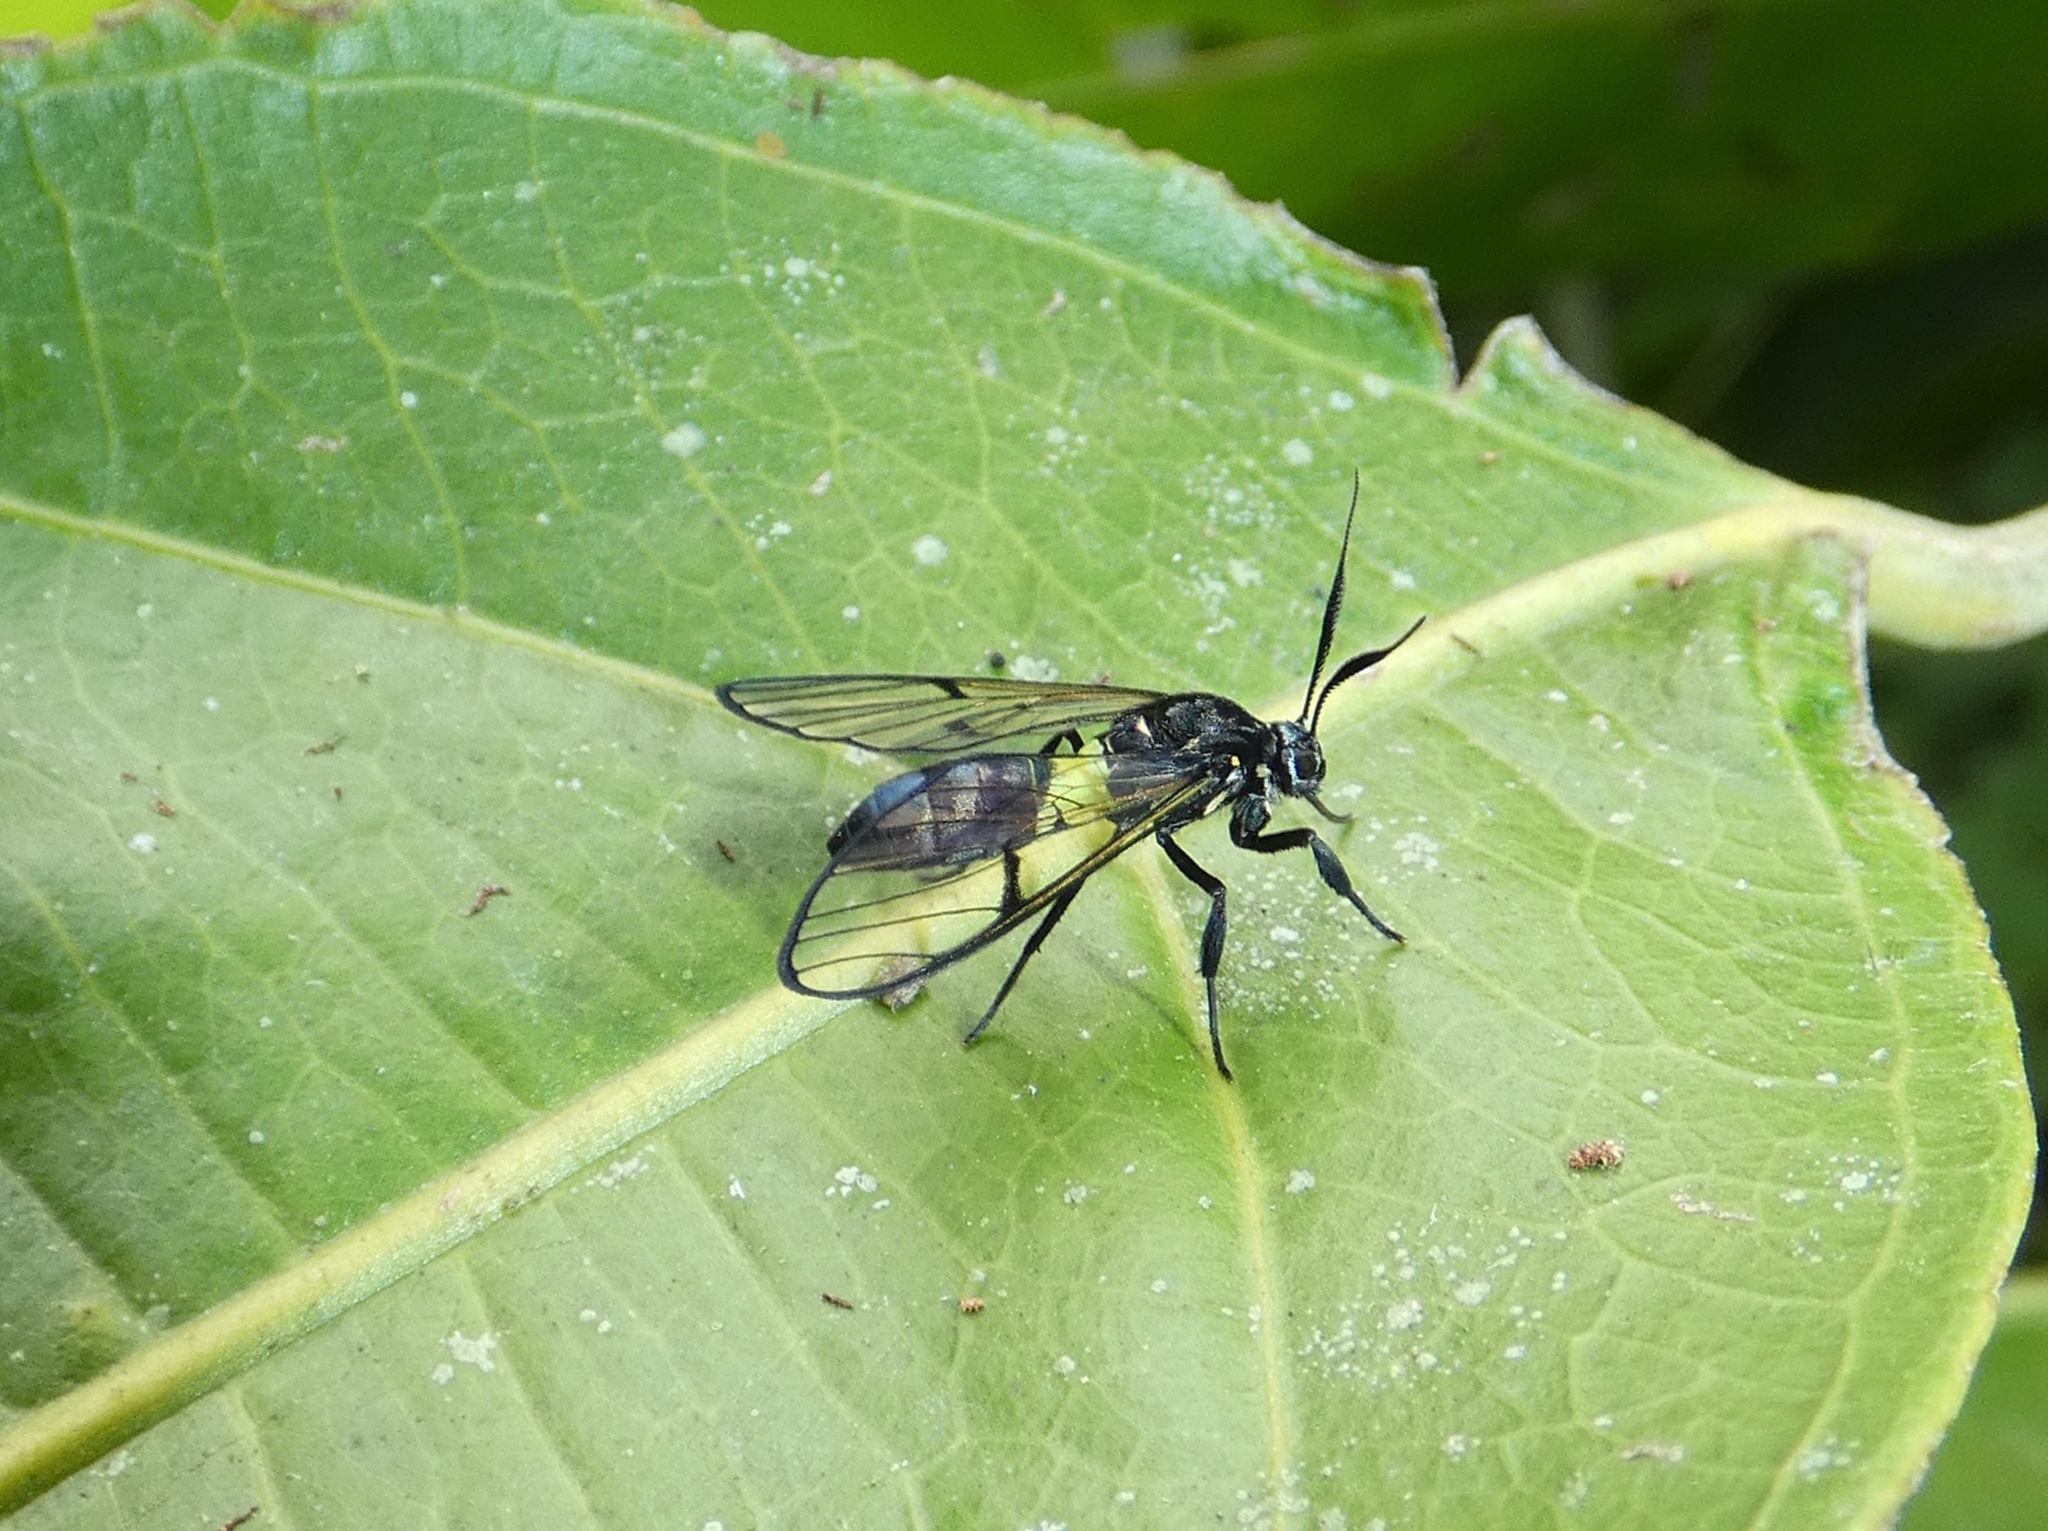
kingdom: Animalia
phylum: Arthropoda
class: Insecta
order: Lepidoptera
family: Erebidae
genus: Argyroeides
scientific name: Argyroeides minuta
